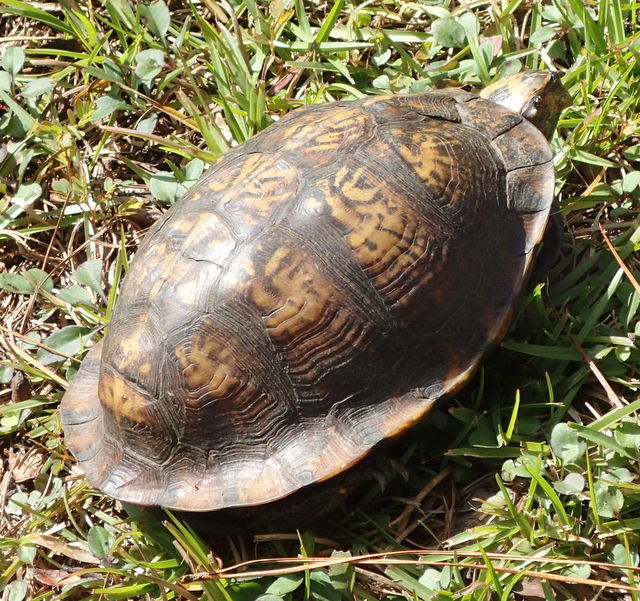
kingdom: Animalia
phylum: Chordata
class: Testudines
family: Emydidae
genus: Terrapene
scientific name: Terrapene carolina
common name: Common box turtle
